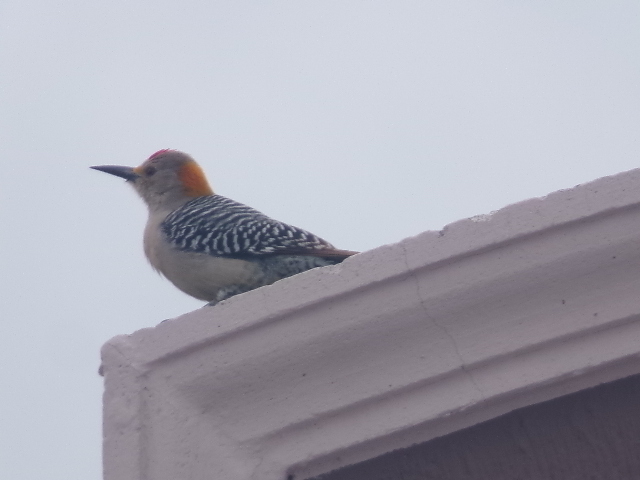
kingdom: Animalia
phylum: Chordata
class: Aves
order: Piciformes
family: Picidae
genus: Melanerpes
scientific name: Melanerpes aurifrons
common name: Golden-fronted woodpecker
